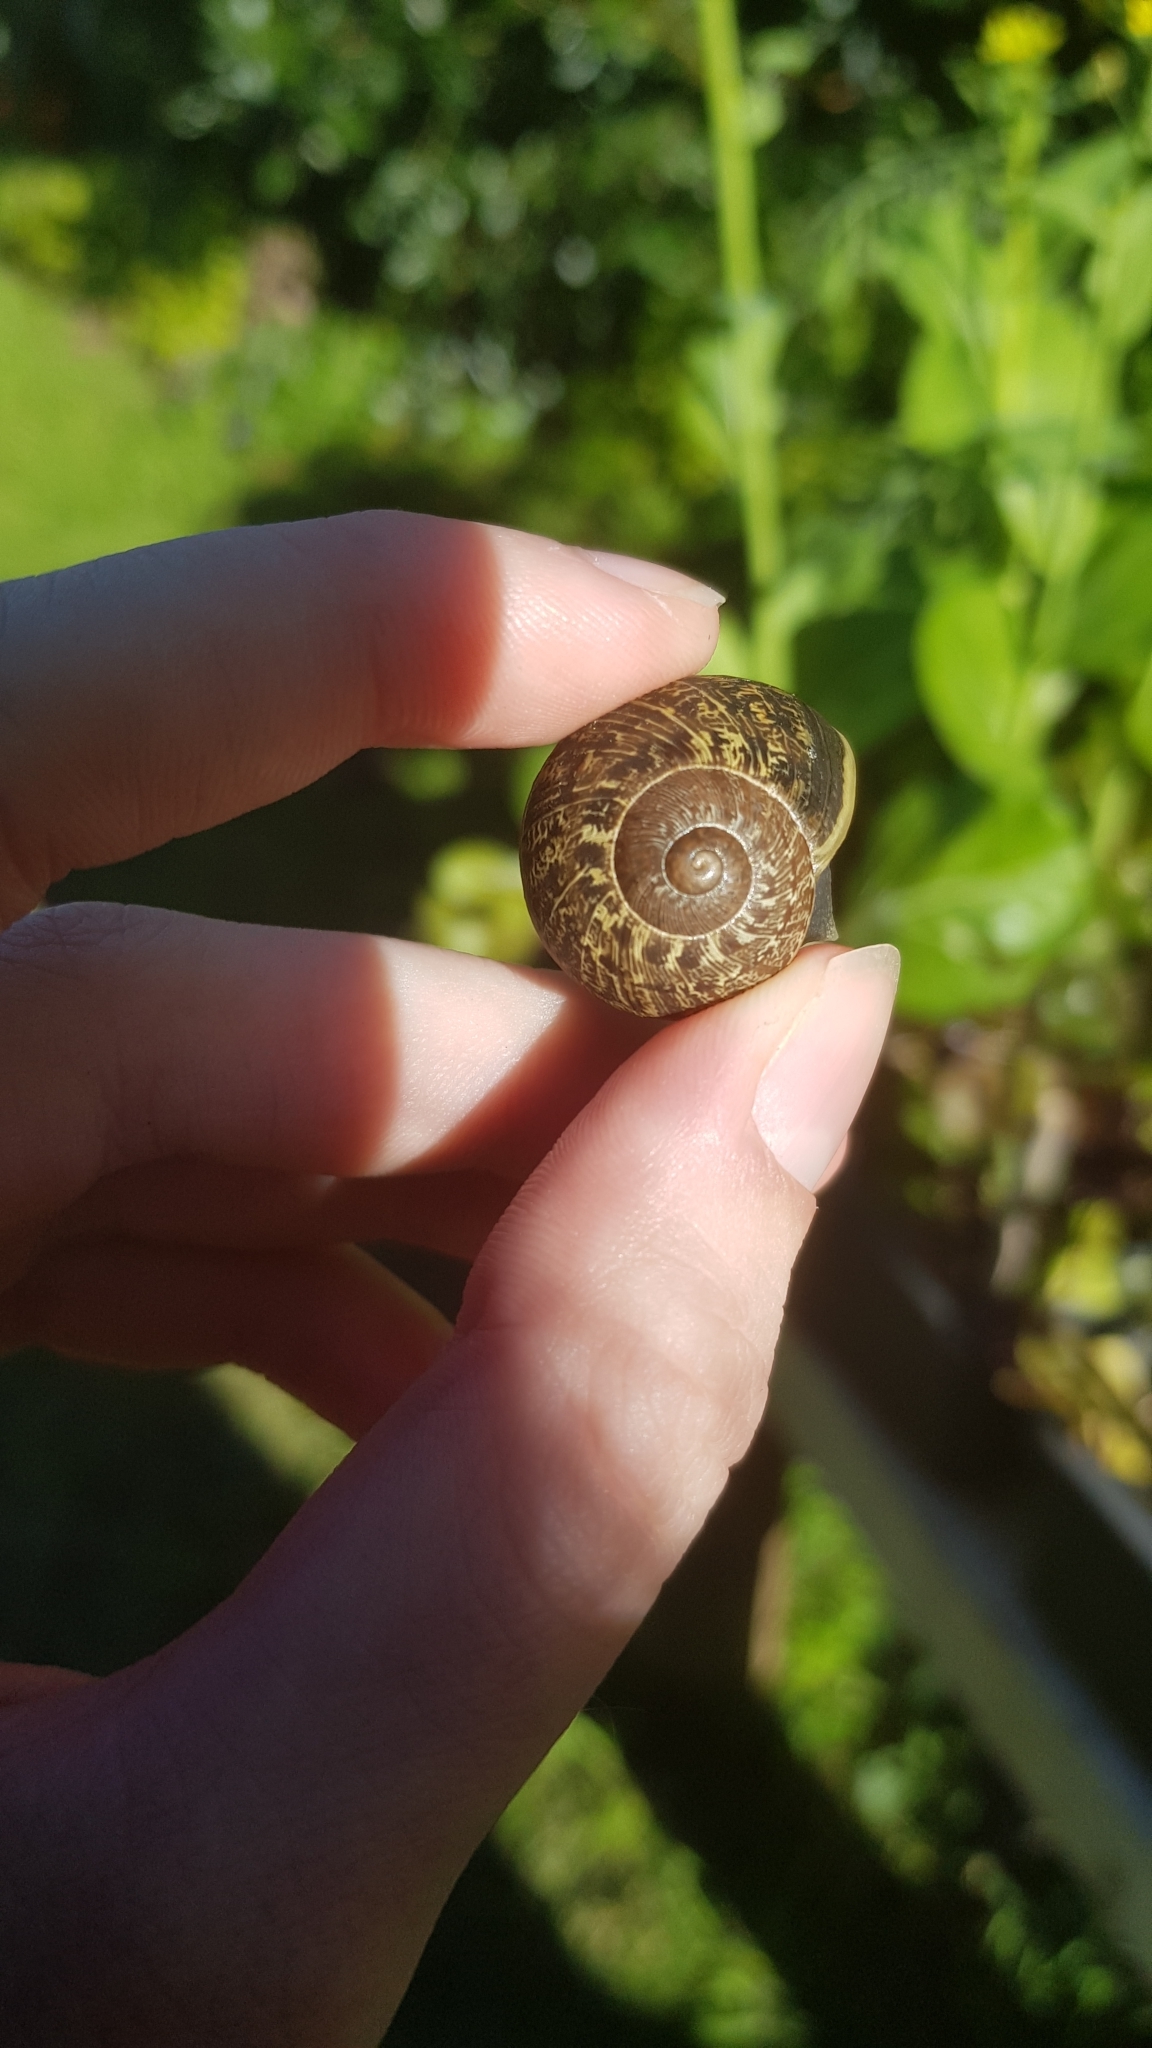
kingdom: Animalia
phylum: Mollusca
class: Gastropoda
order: Stylommatophora
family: Helicidae
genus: Cornu
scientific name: Cornu aspersum
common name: Brown garden snail
